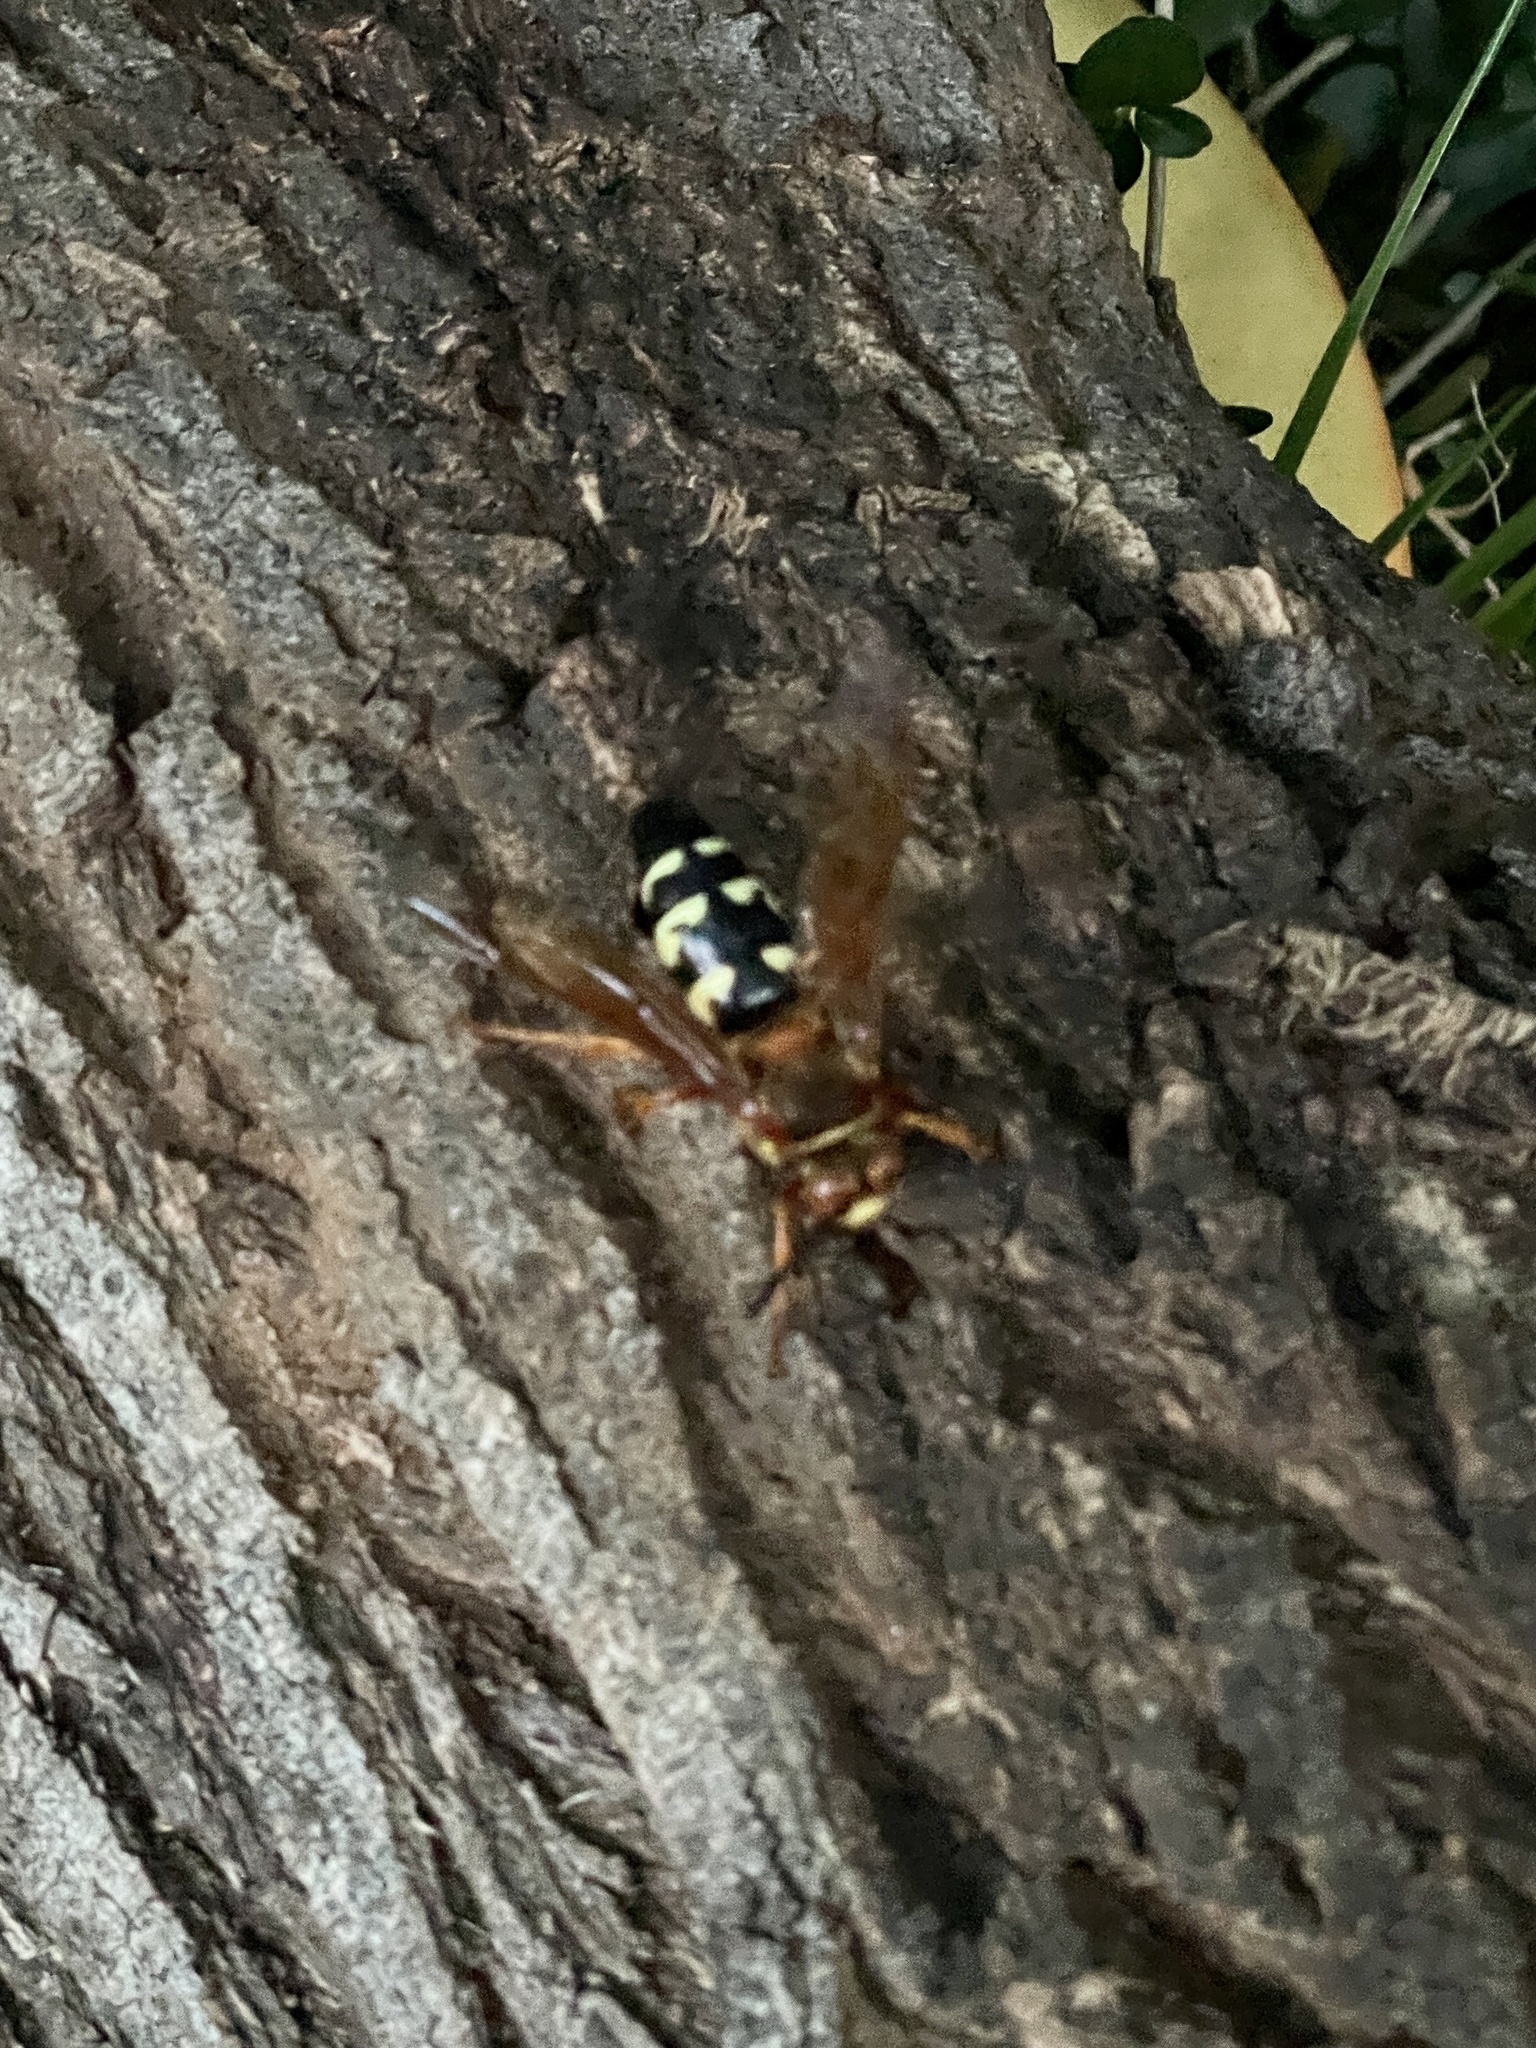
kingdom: Animalia
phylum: Arthropoda
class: Insecta
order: Hymenoptera
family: Crabronidae
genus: Sphecius
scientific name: Sphecius speciosus
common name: Cicada killer
